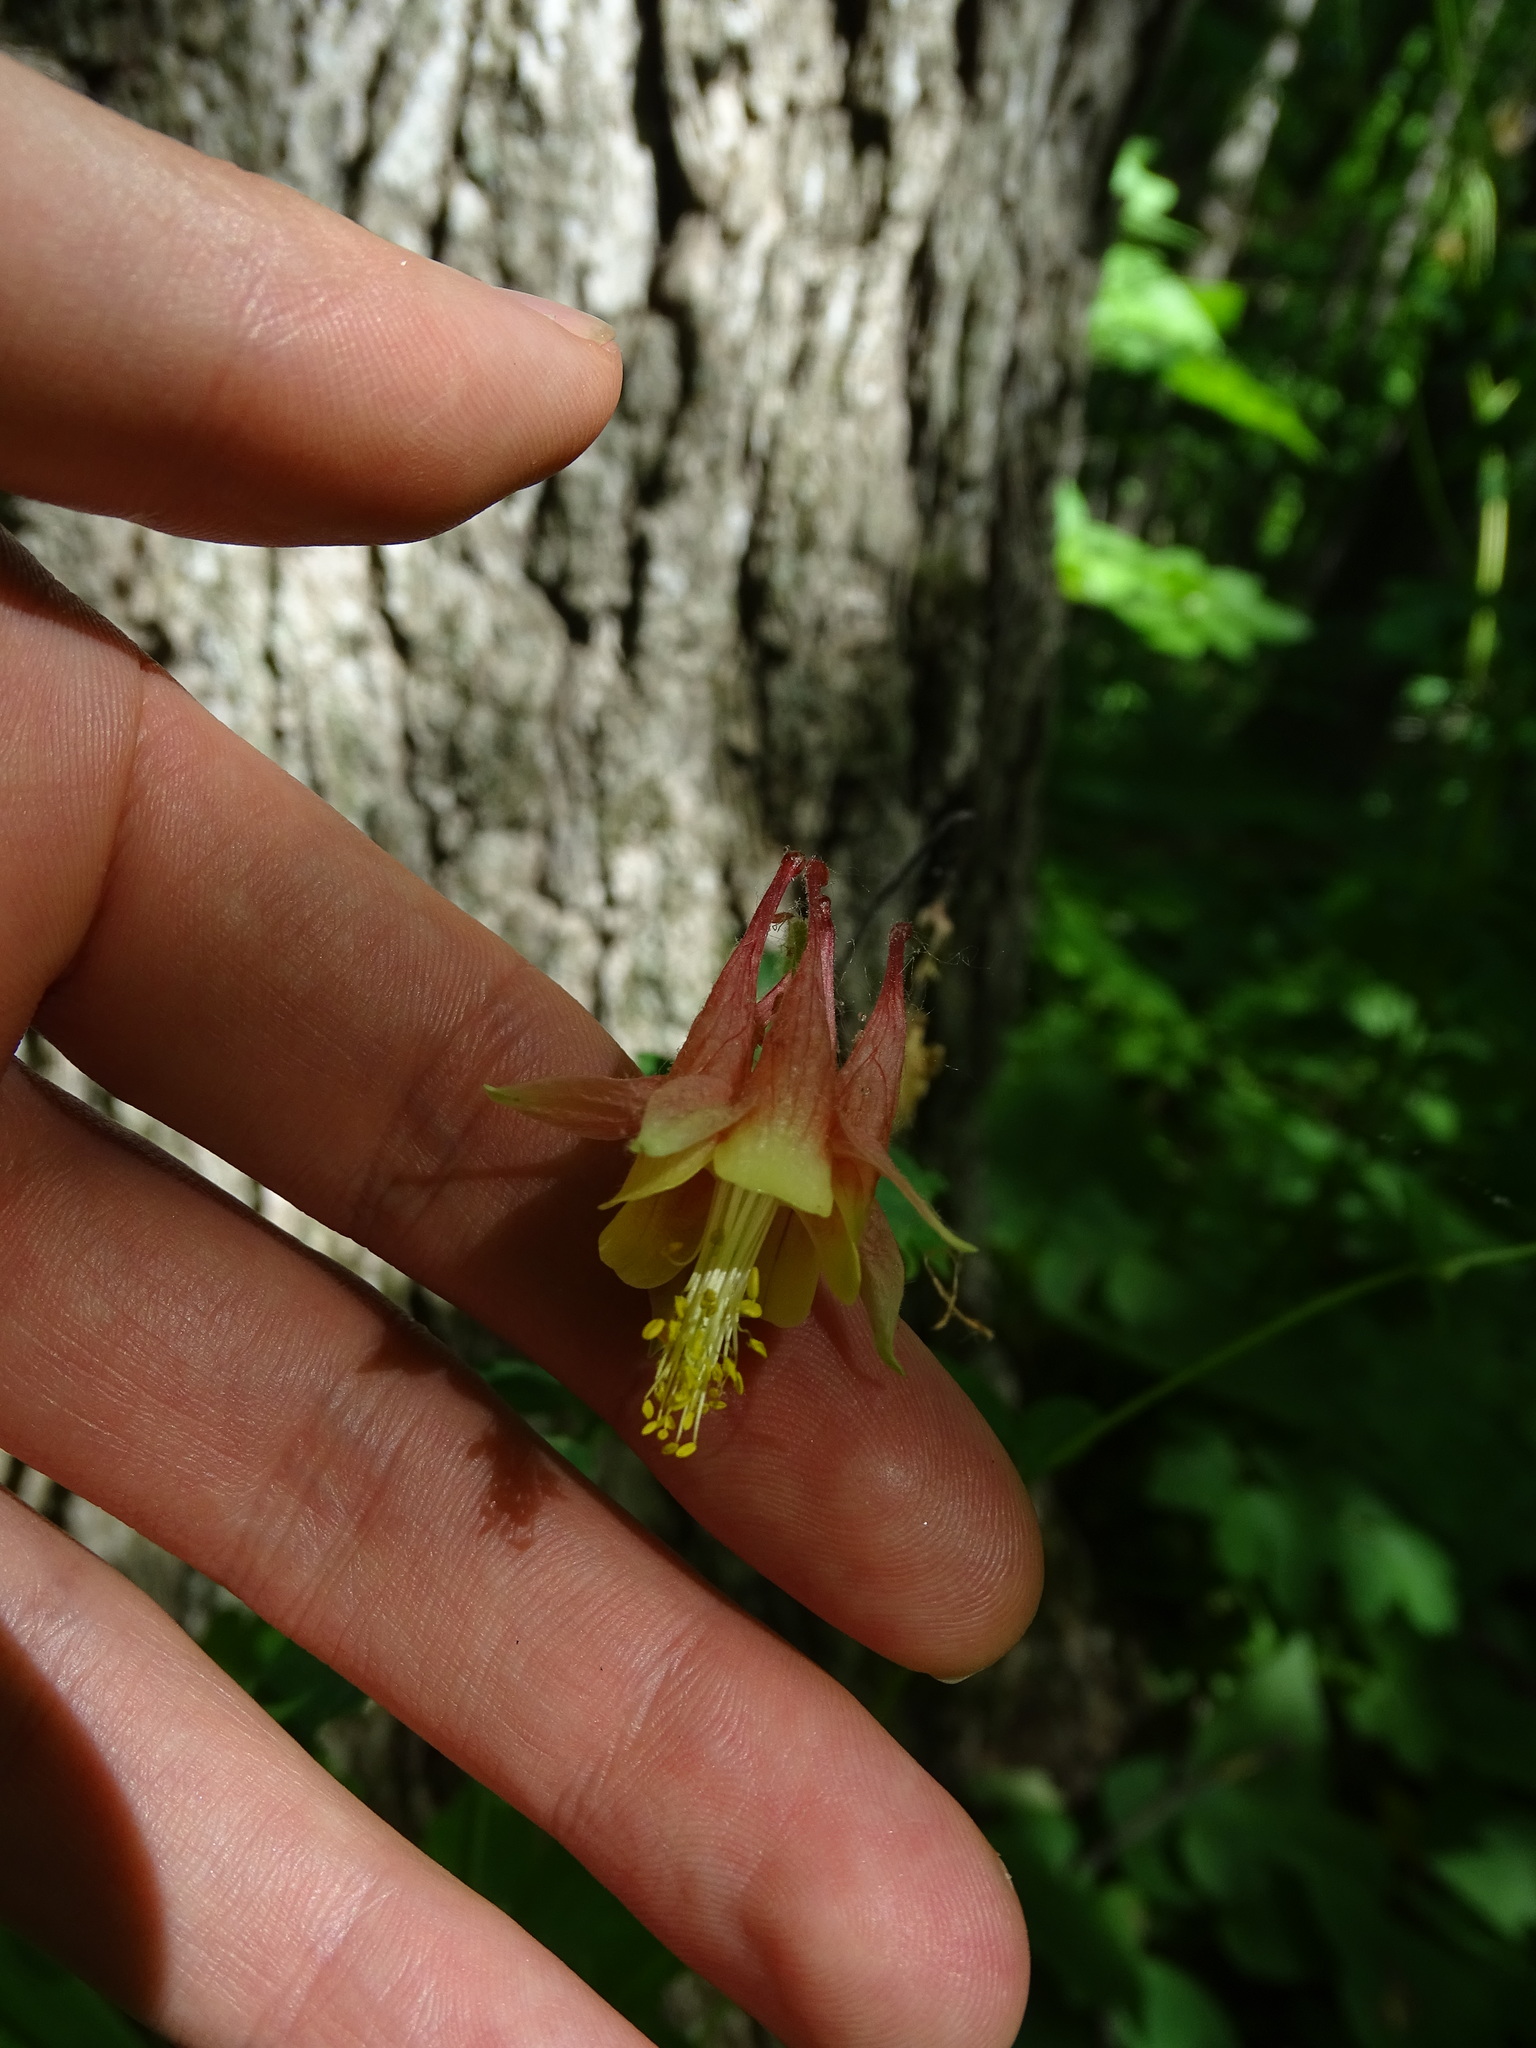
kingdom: Plantae
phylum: Tracheophyta
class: Magnoliopsida
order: Ranunculales
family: Ranunculaceae
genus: Aquilegia
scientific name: Aquilegia canadensis
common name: American columbine
